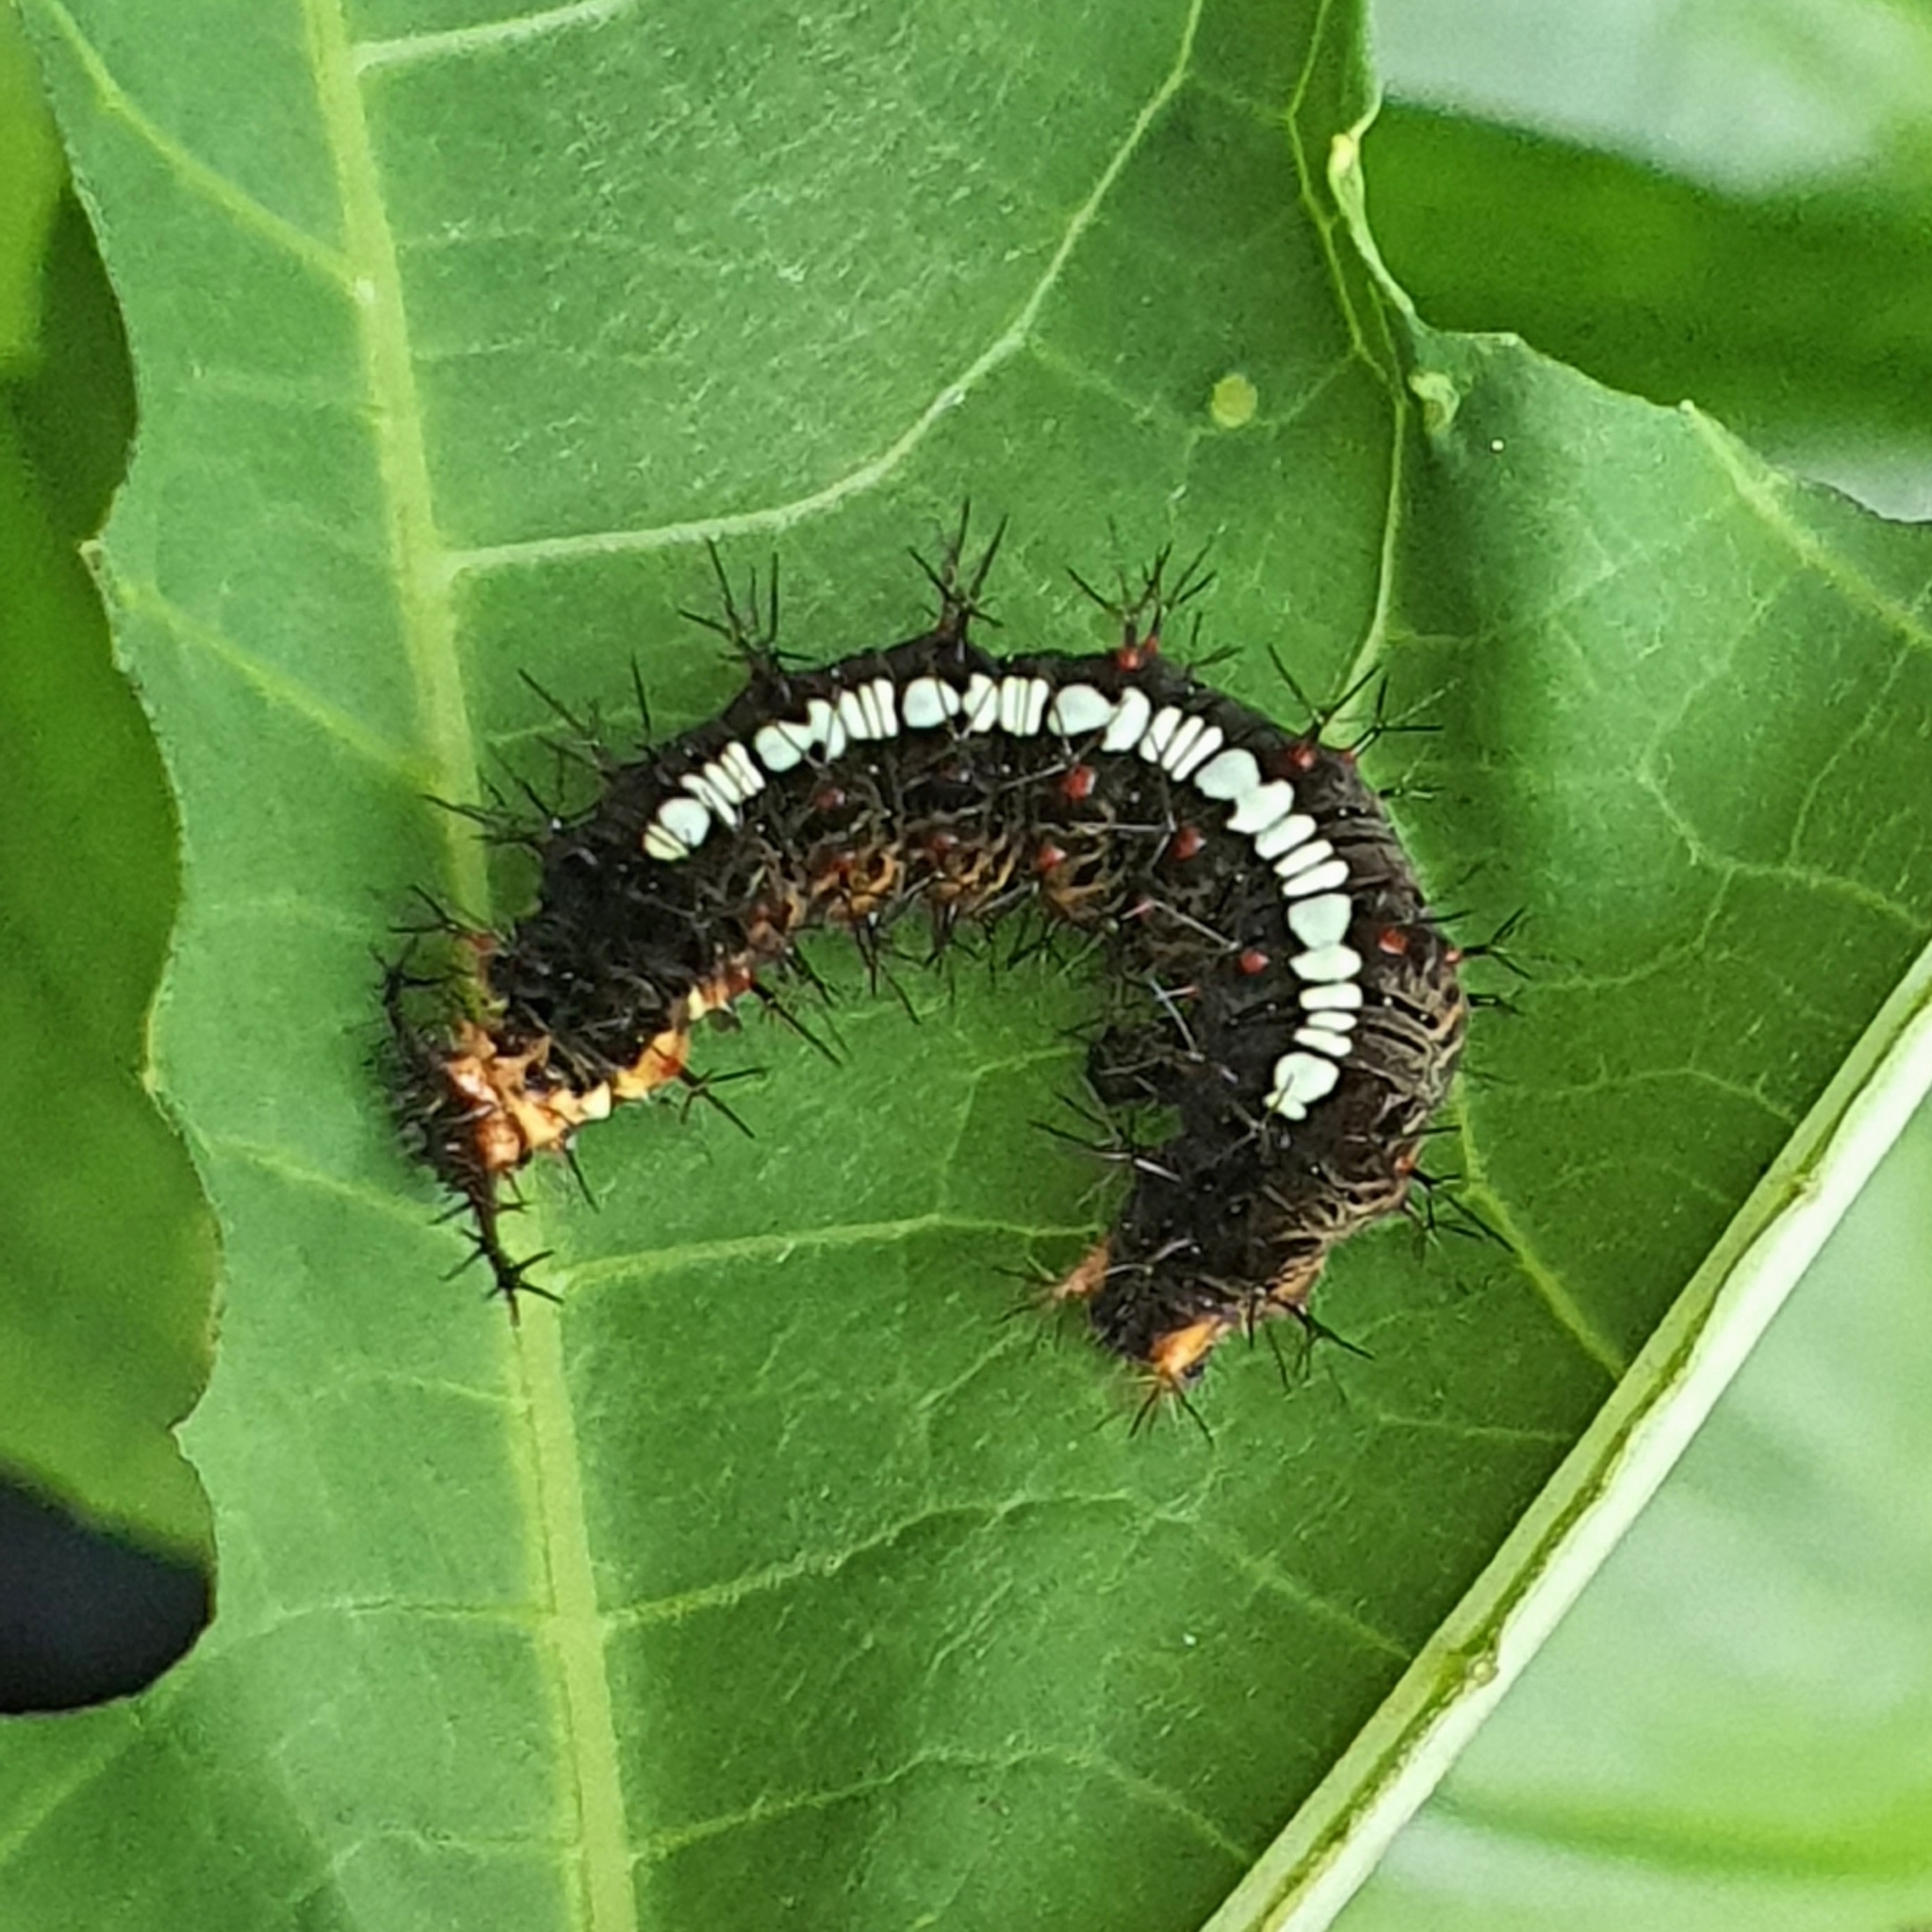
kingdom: Animalia
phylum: Arthropoda
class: Insecta
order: Lepidoptera
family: Nymphalidae
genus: Ariadne
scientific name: Ariadne ariadne
